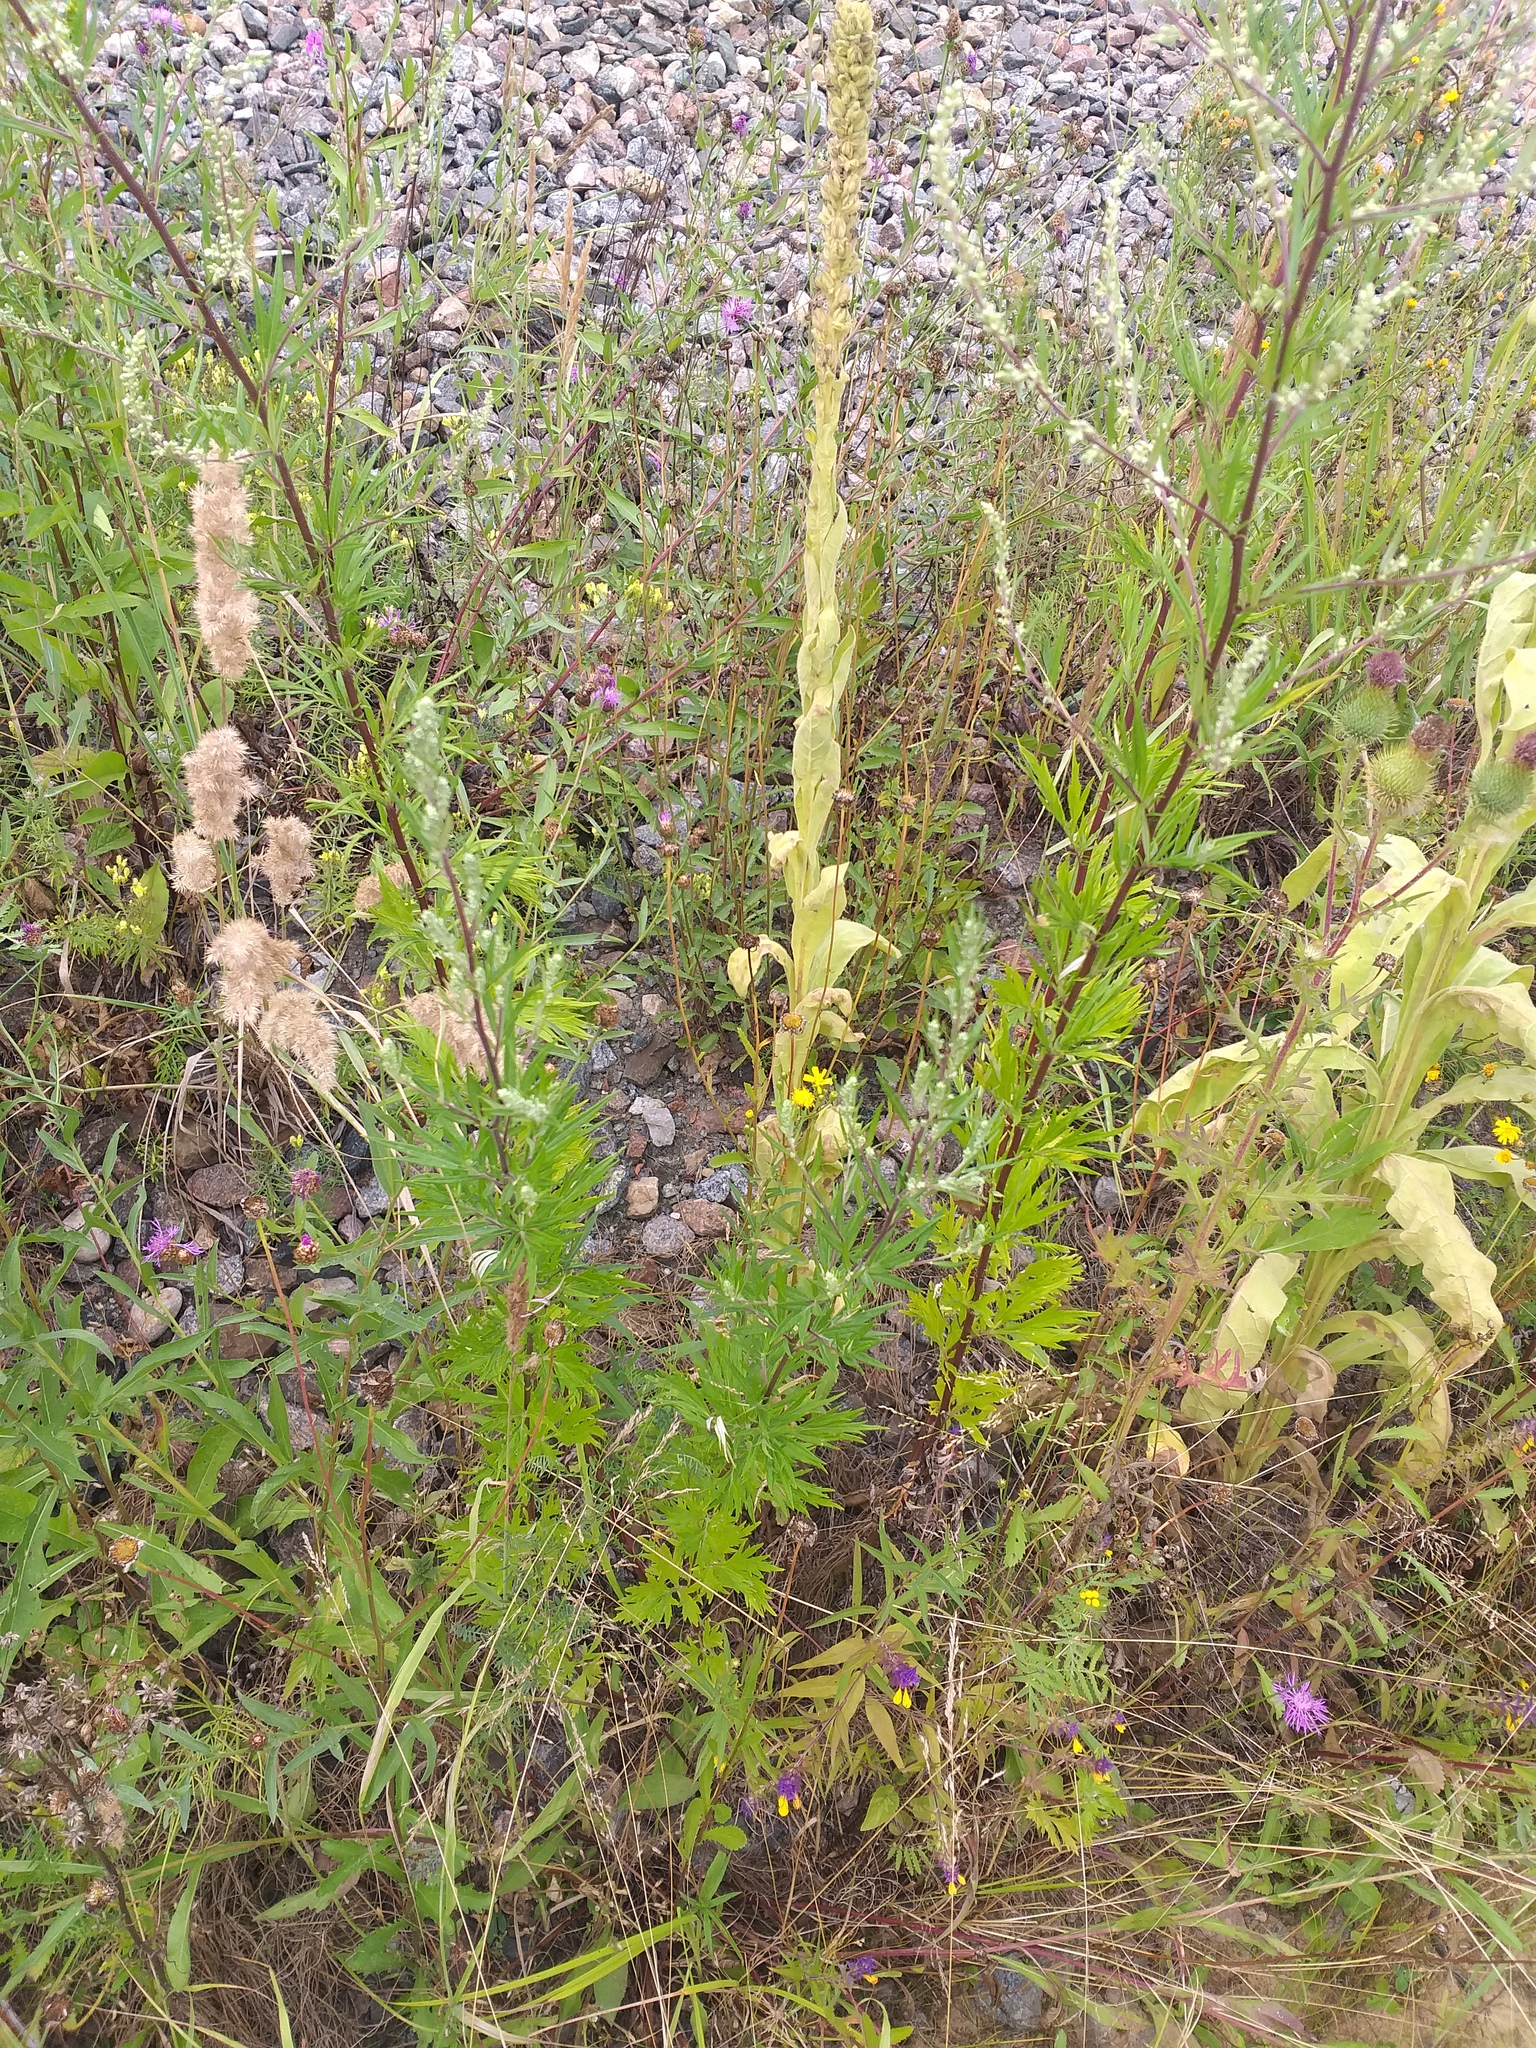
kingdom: Plantae
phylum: Tracheophyta
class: Magnoliopsida
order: Asterales
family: Asteraceae
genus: Artemisia
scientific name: Artemisia vulgaris
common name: Mugwort
